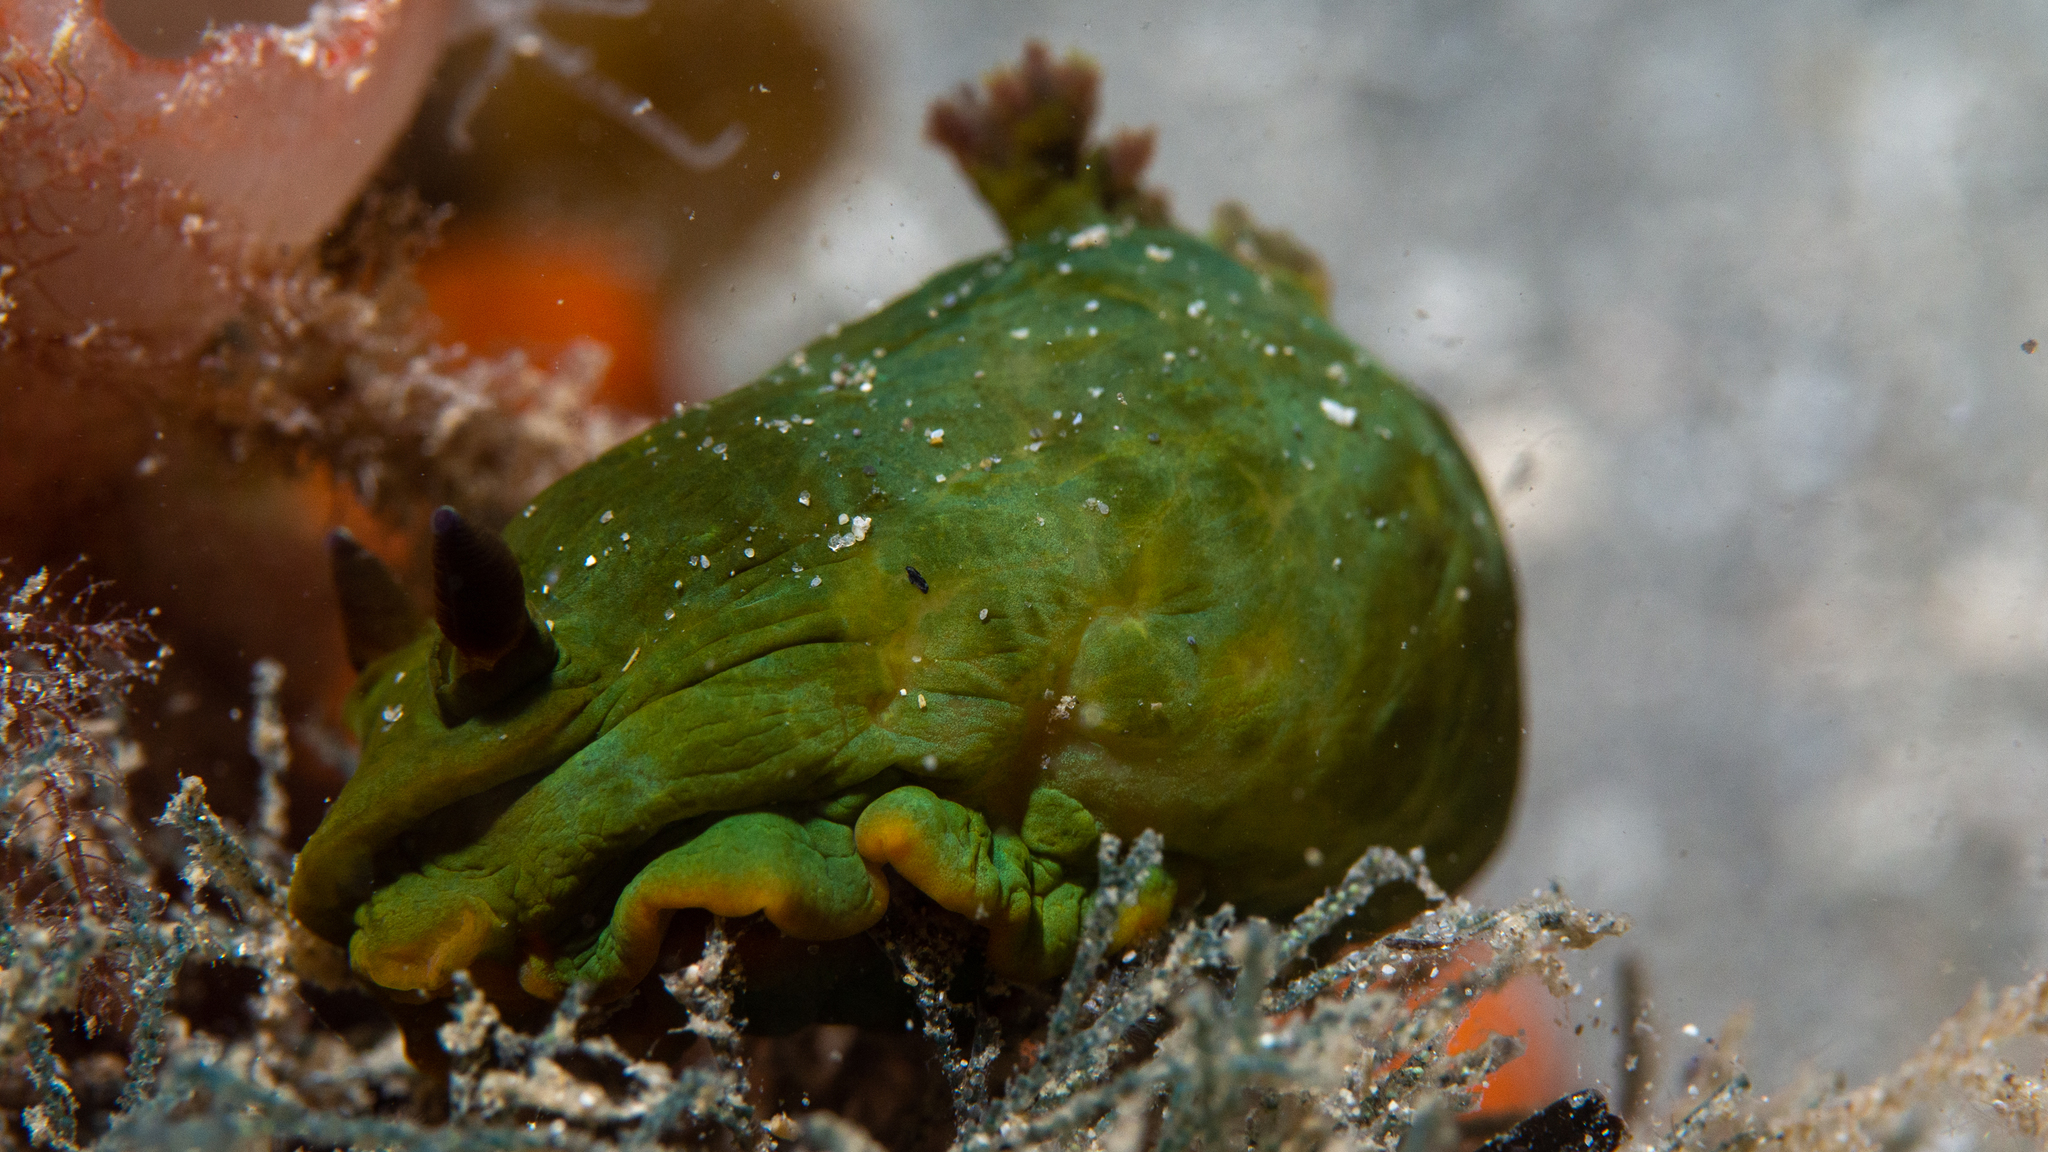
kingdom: Animalia
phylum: Mollusca
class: Gastropoda
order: Nudibranchia
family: Polyceridae
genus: Tambja
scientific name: Tambja dracomus
